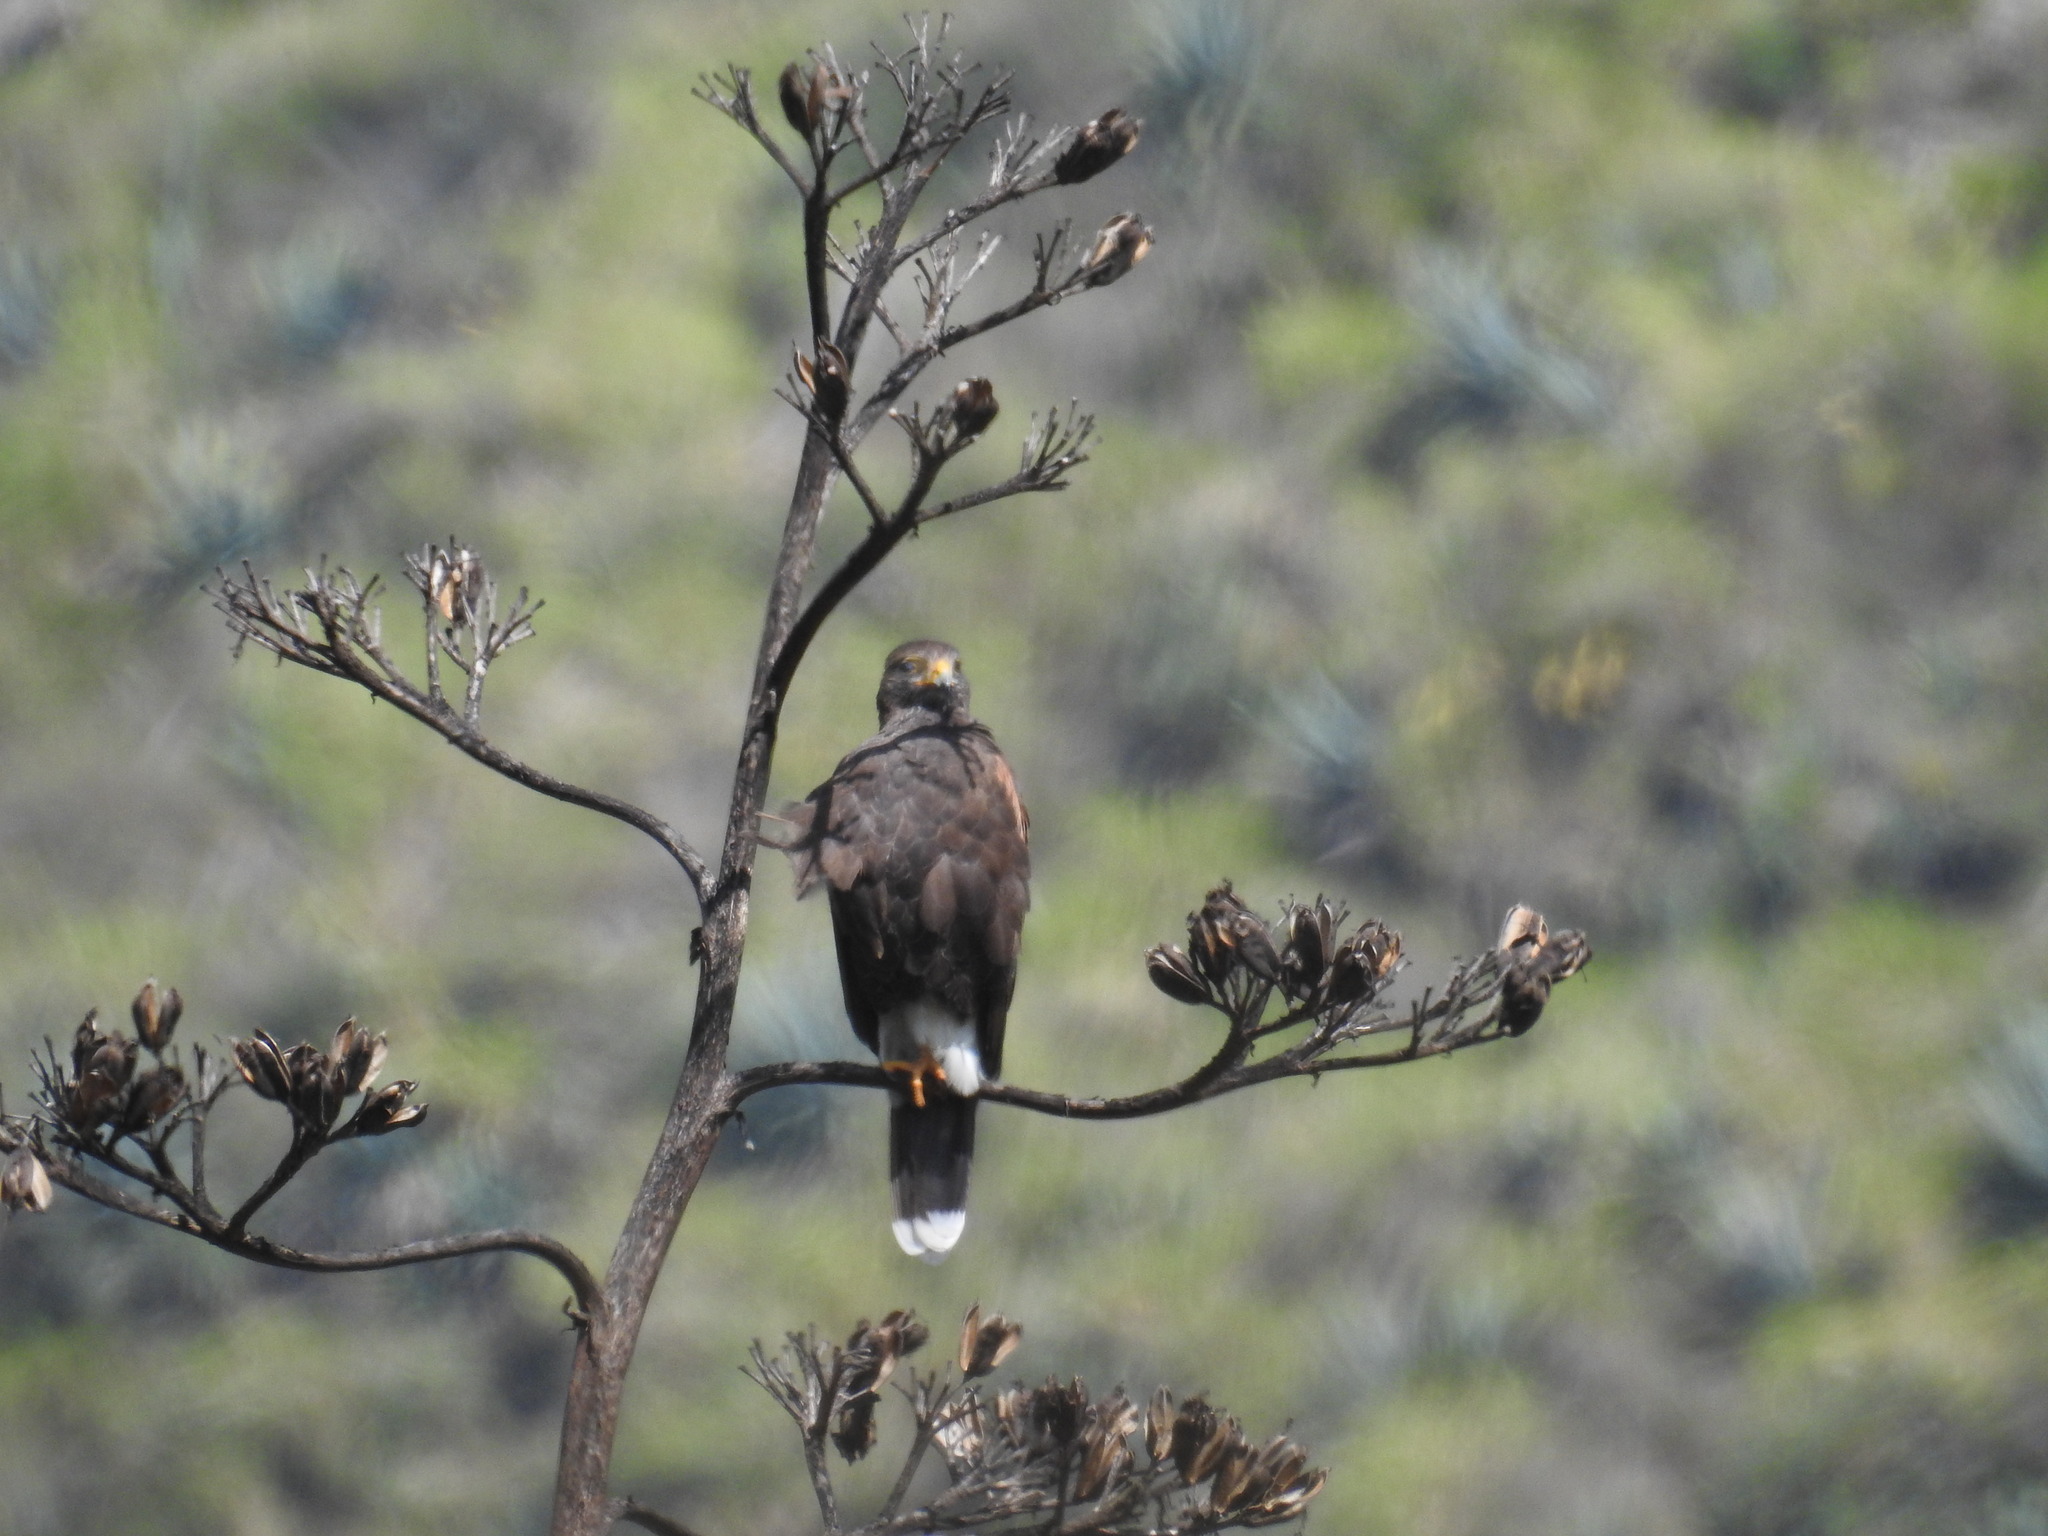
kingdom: Animalia
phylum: Chordata
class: Aves
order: Accipitriformes
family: Accipitridae
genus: Parabuteo
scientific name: Parabuteo unicinctus
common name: Harris's hawk
